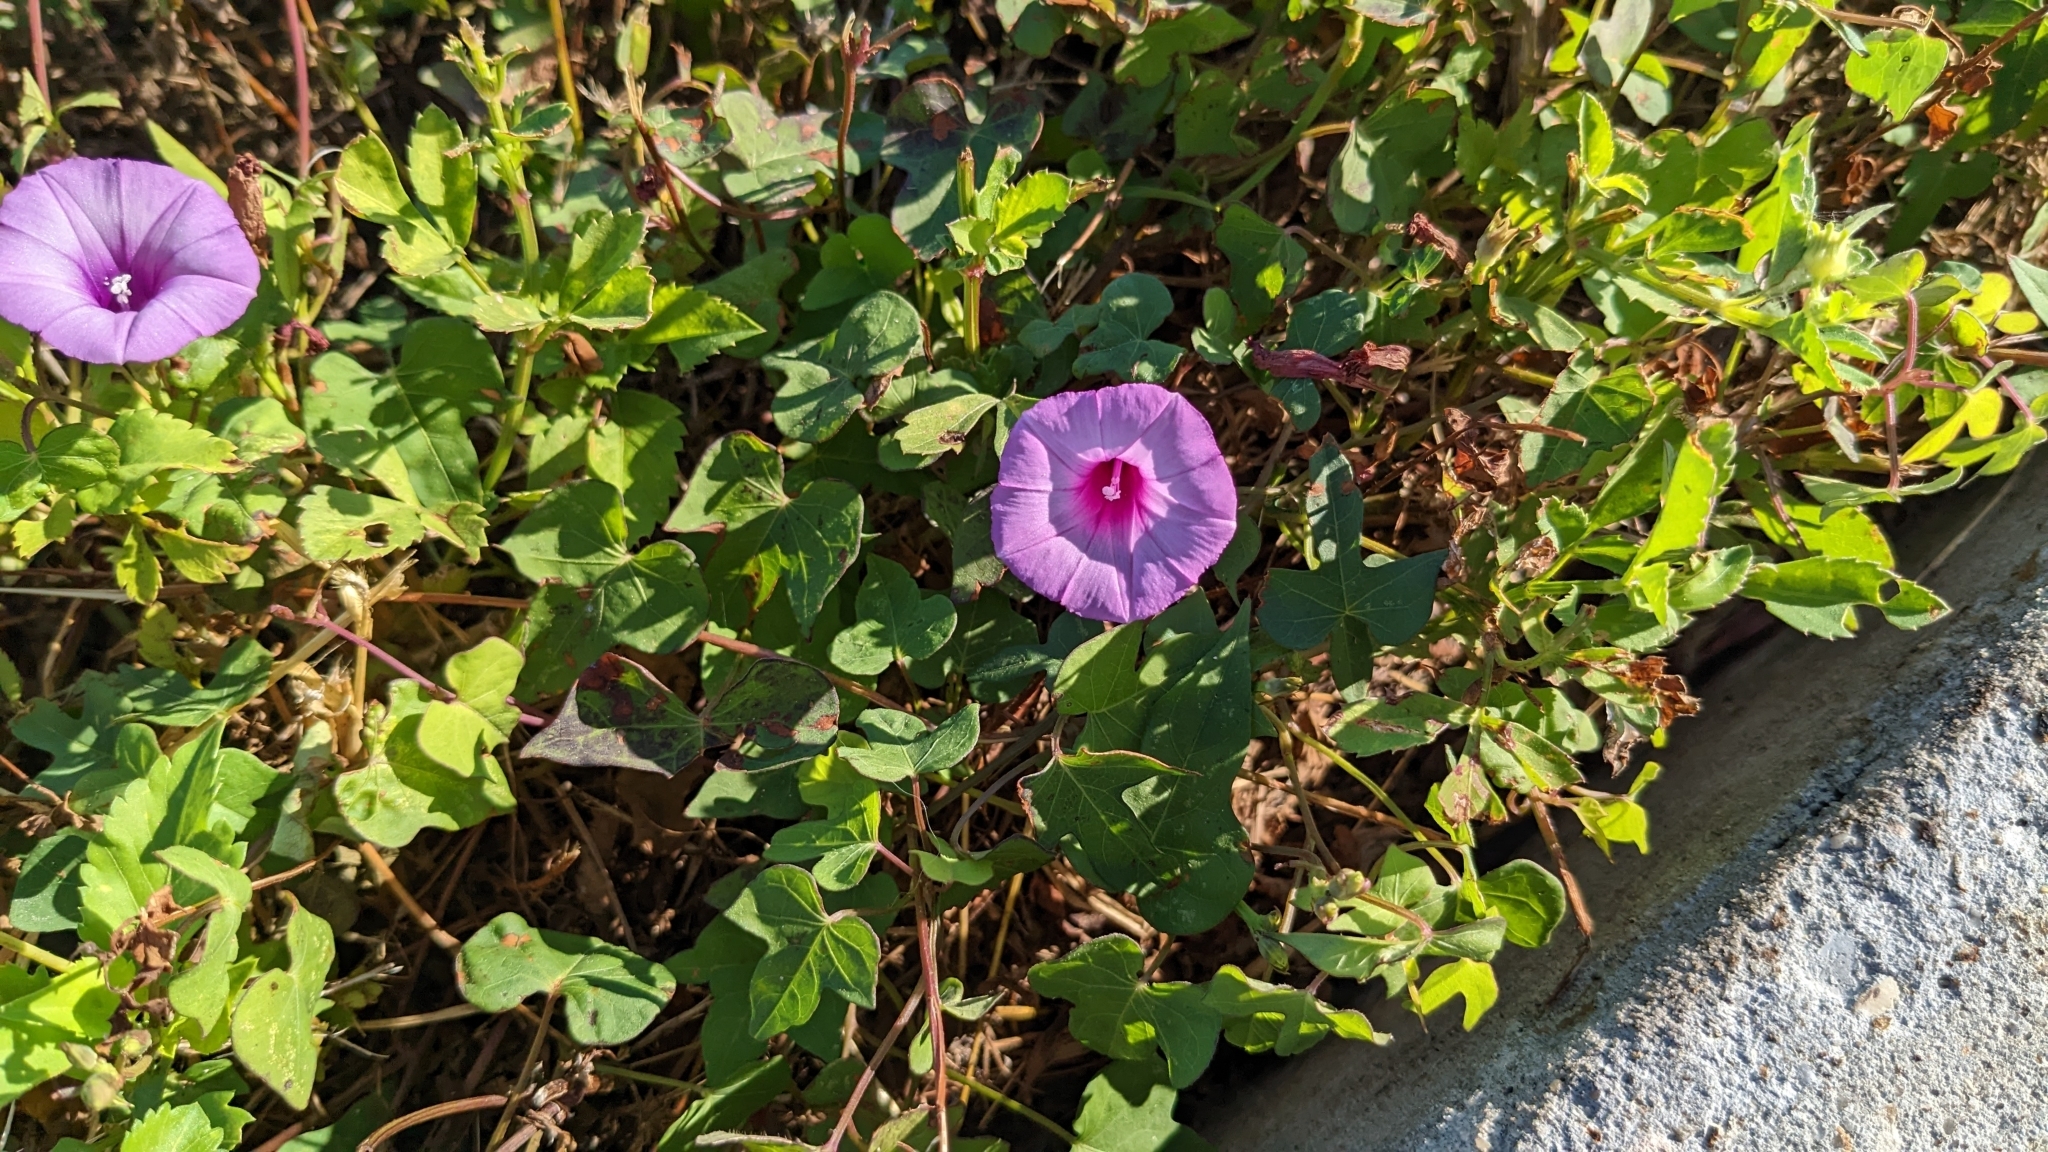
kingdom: Plantae
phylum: Tracheophyta
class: Magnoliopsida
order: Solanales
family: Convolvulaceae
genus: Ipomoea
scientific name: Ipomoea cordatotriloba
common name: Cotton morning glory
